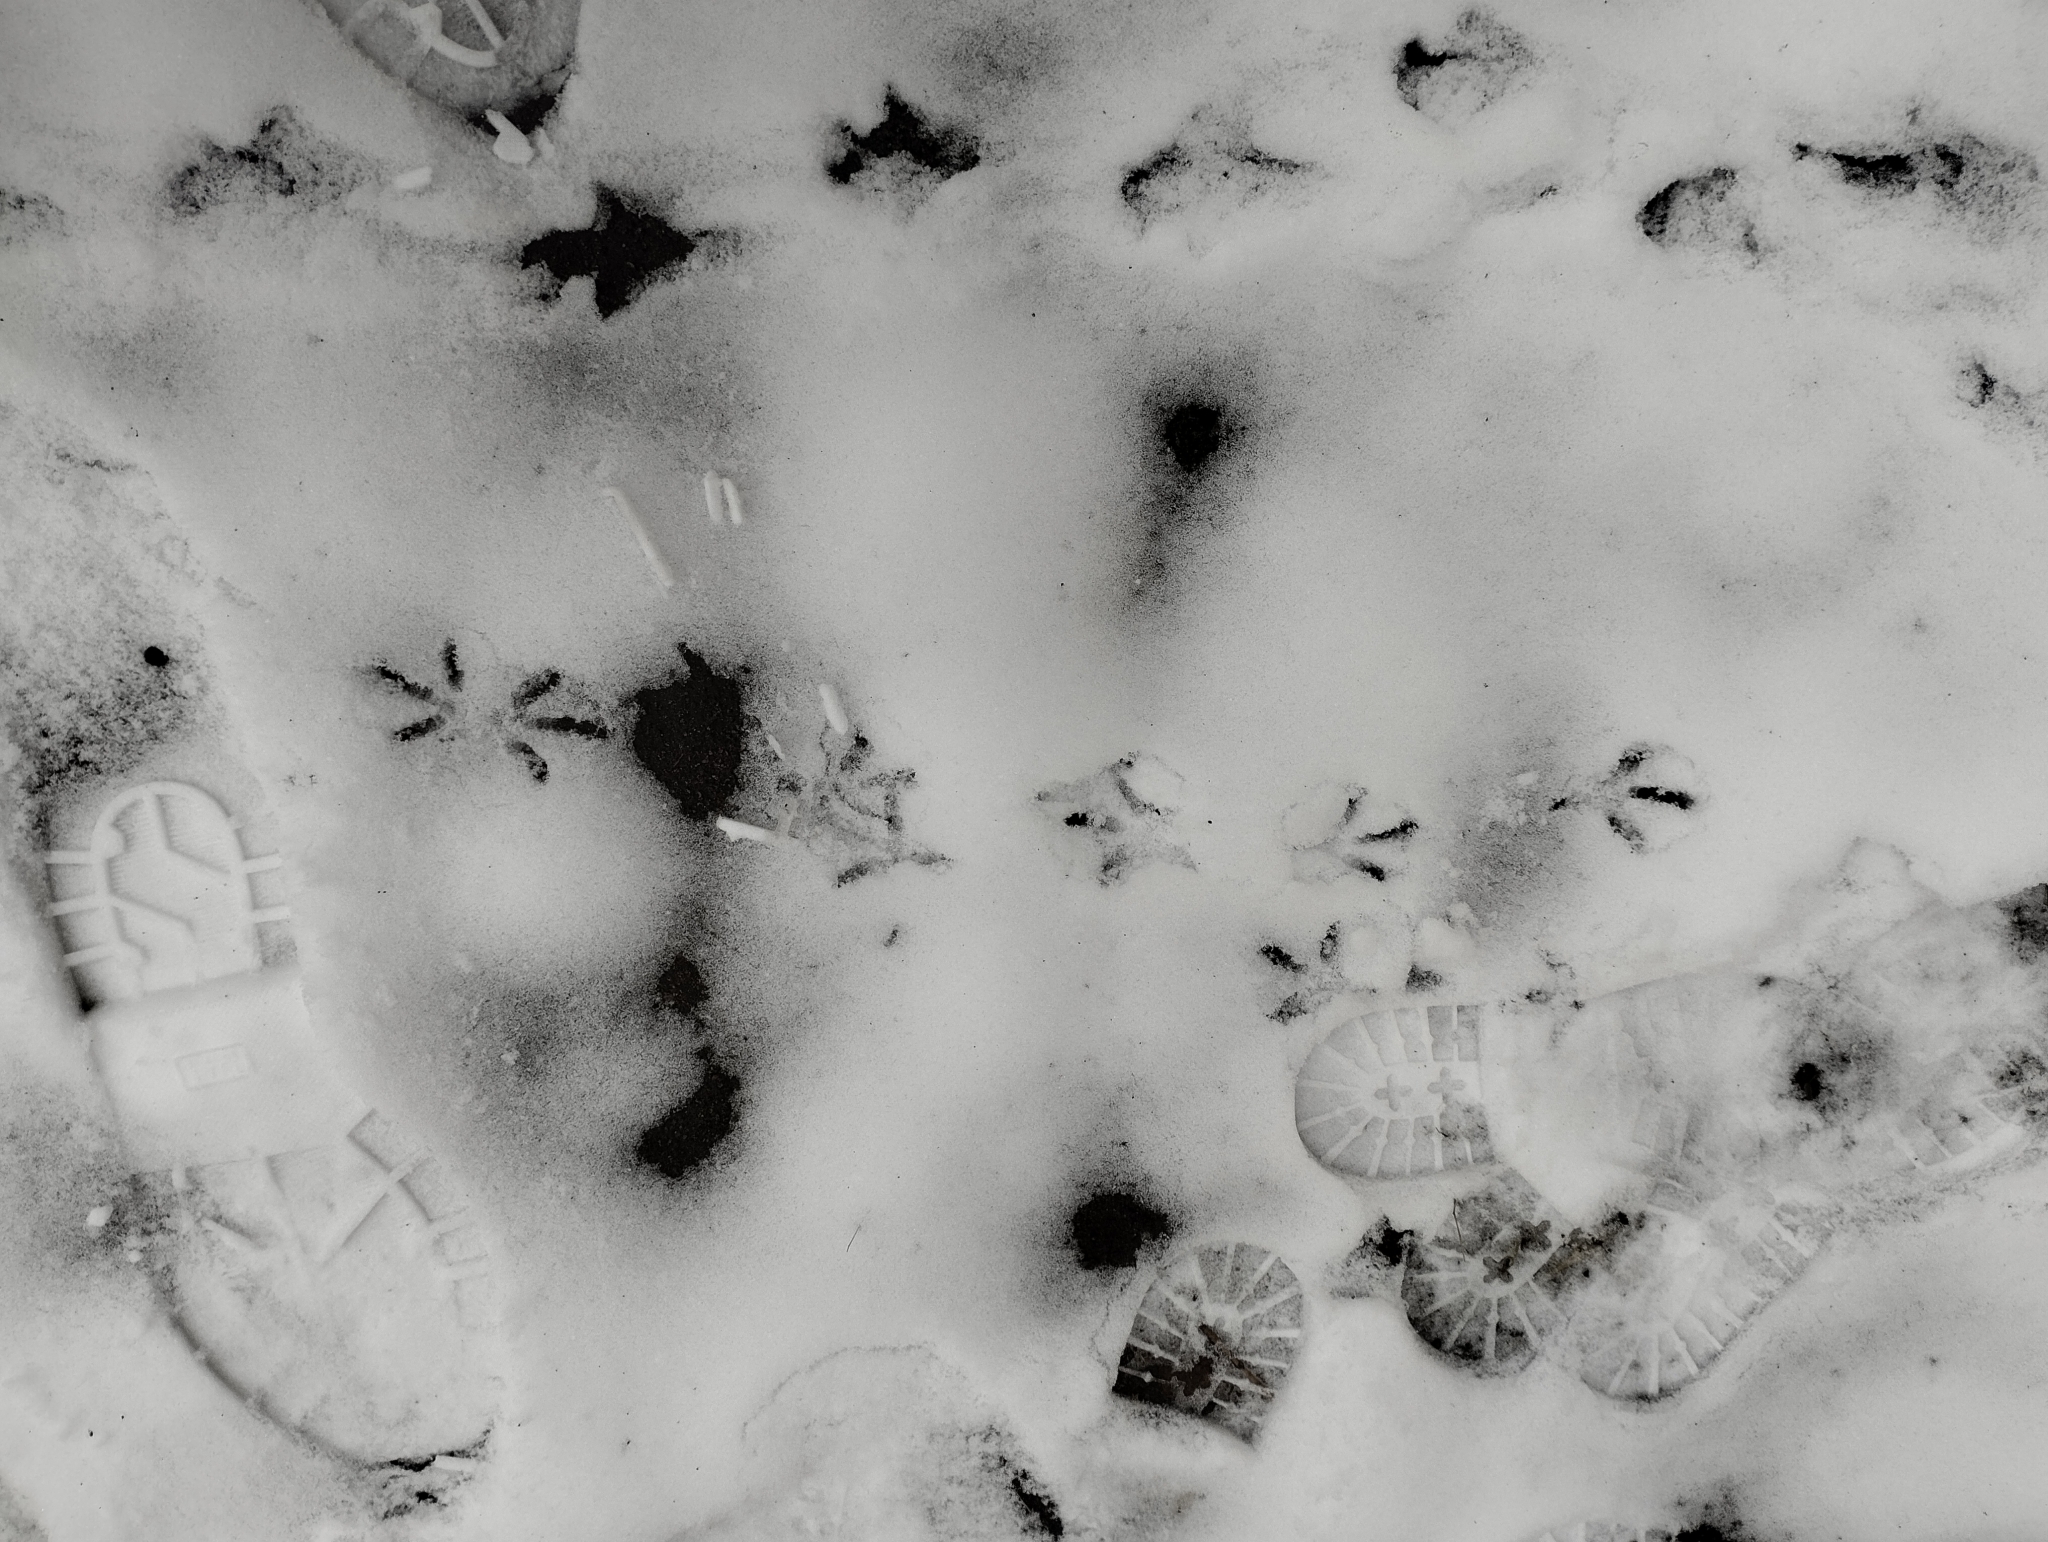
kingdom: Animalia
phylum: Chordata
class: Aves
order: Columbiformes
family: Columbidae
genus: Columba
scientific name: Columba livia
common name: Rock pigeon
